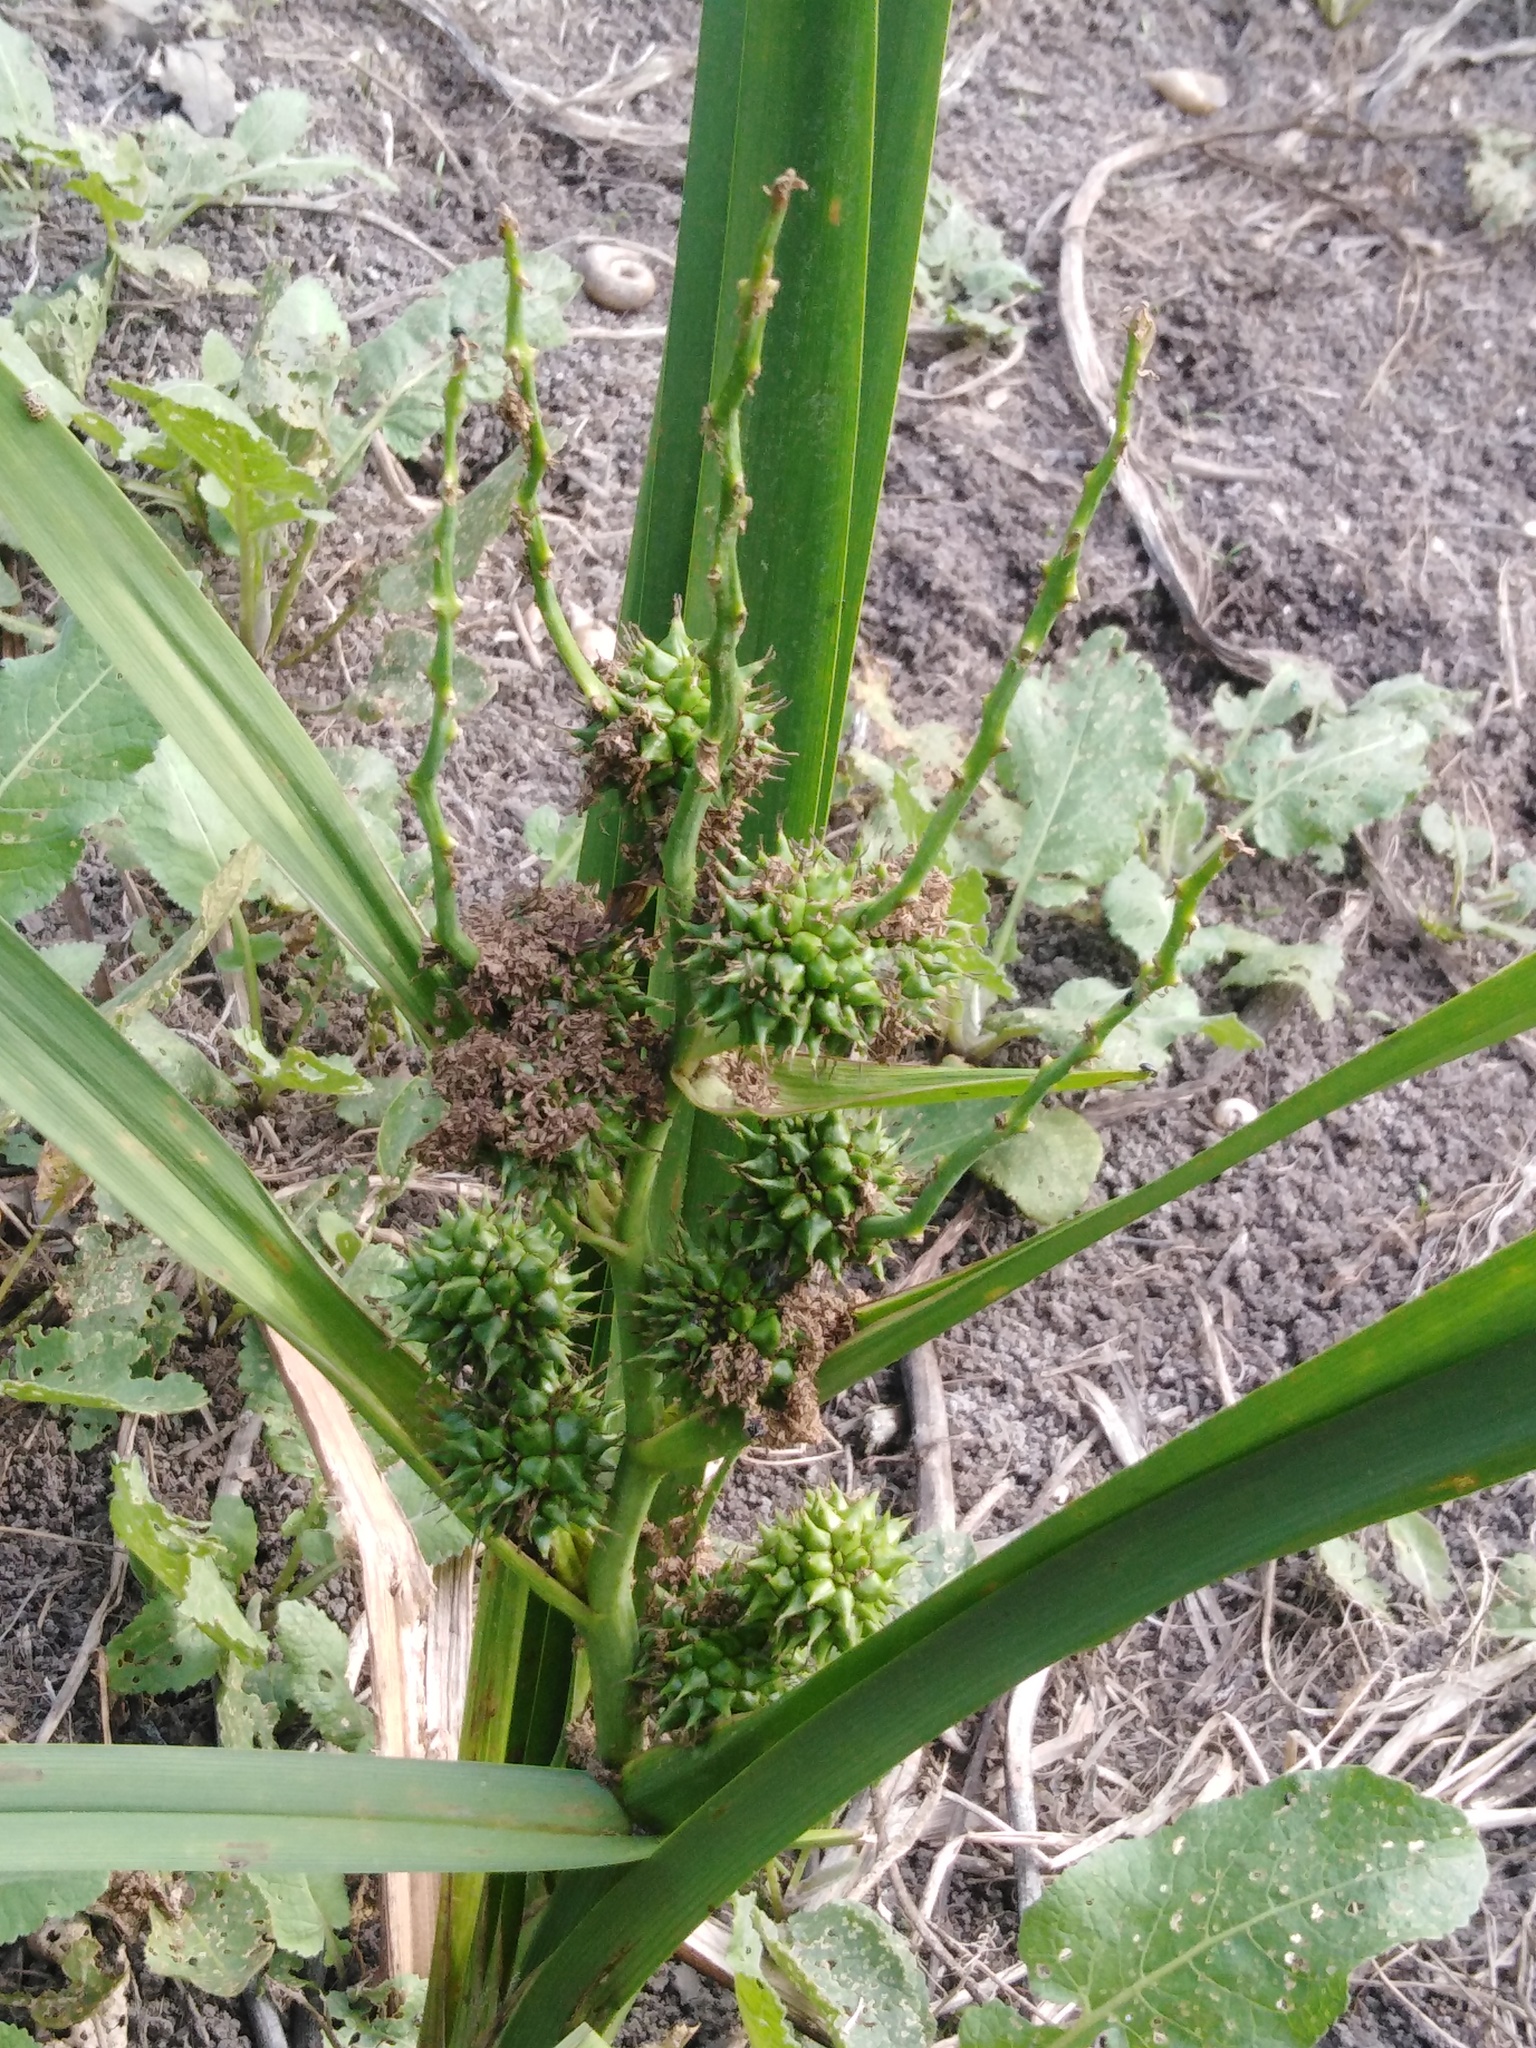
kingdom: Plantae
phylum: Tracheophyta
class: Liliopsida
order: Poales
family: Typhaceae
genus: Sparganium
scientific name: Sparganium erectum
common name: Branched bur-reed
